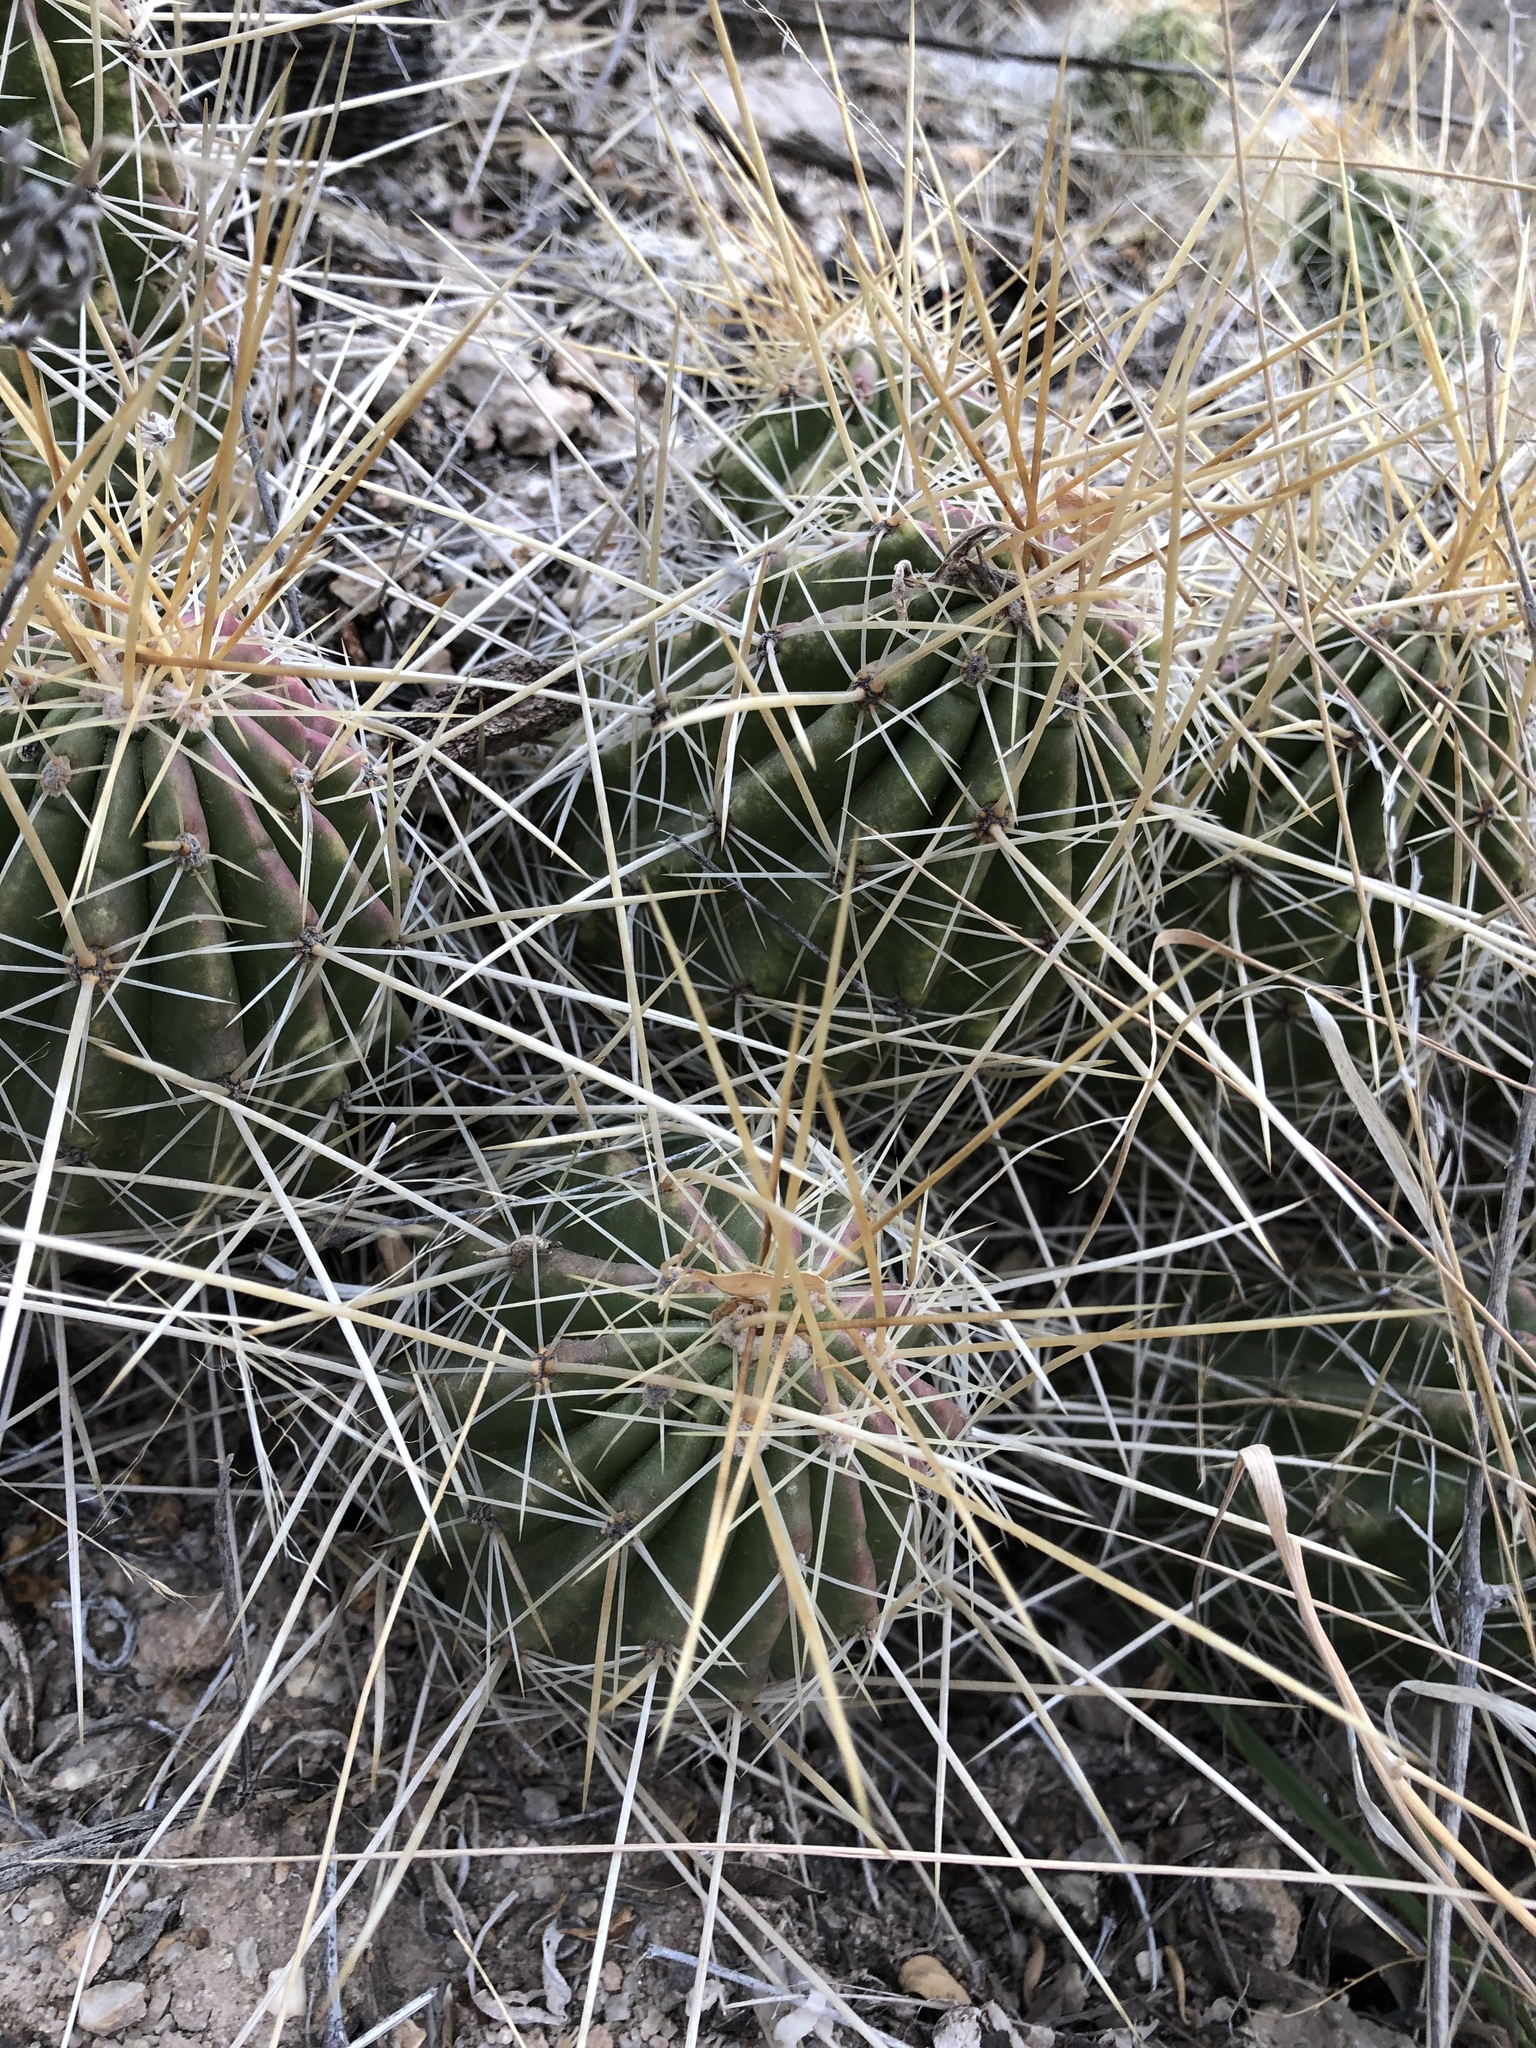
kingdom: Plantae
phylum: Tracheophyta
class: Magnoliopsida
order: Caryophyllales
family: Cactaceae
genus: Echinocereus
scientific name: Echinocereus stramineus
